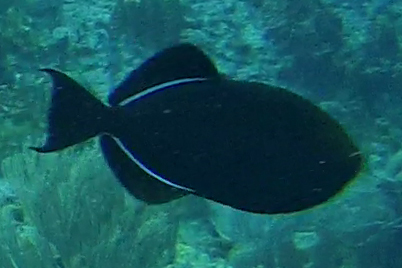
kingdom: Animalia
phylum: Chordata
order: Tetraodontiformes
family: Balistidae
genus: Melichthys
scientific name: Melichthys niger
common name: Black durgon
